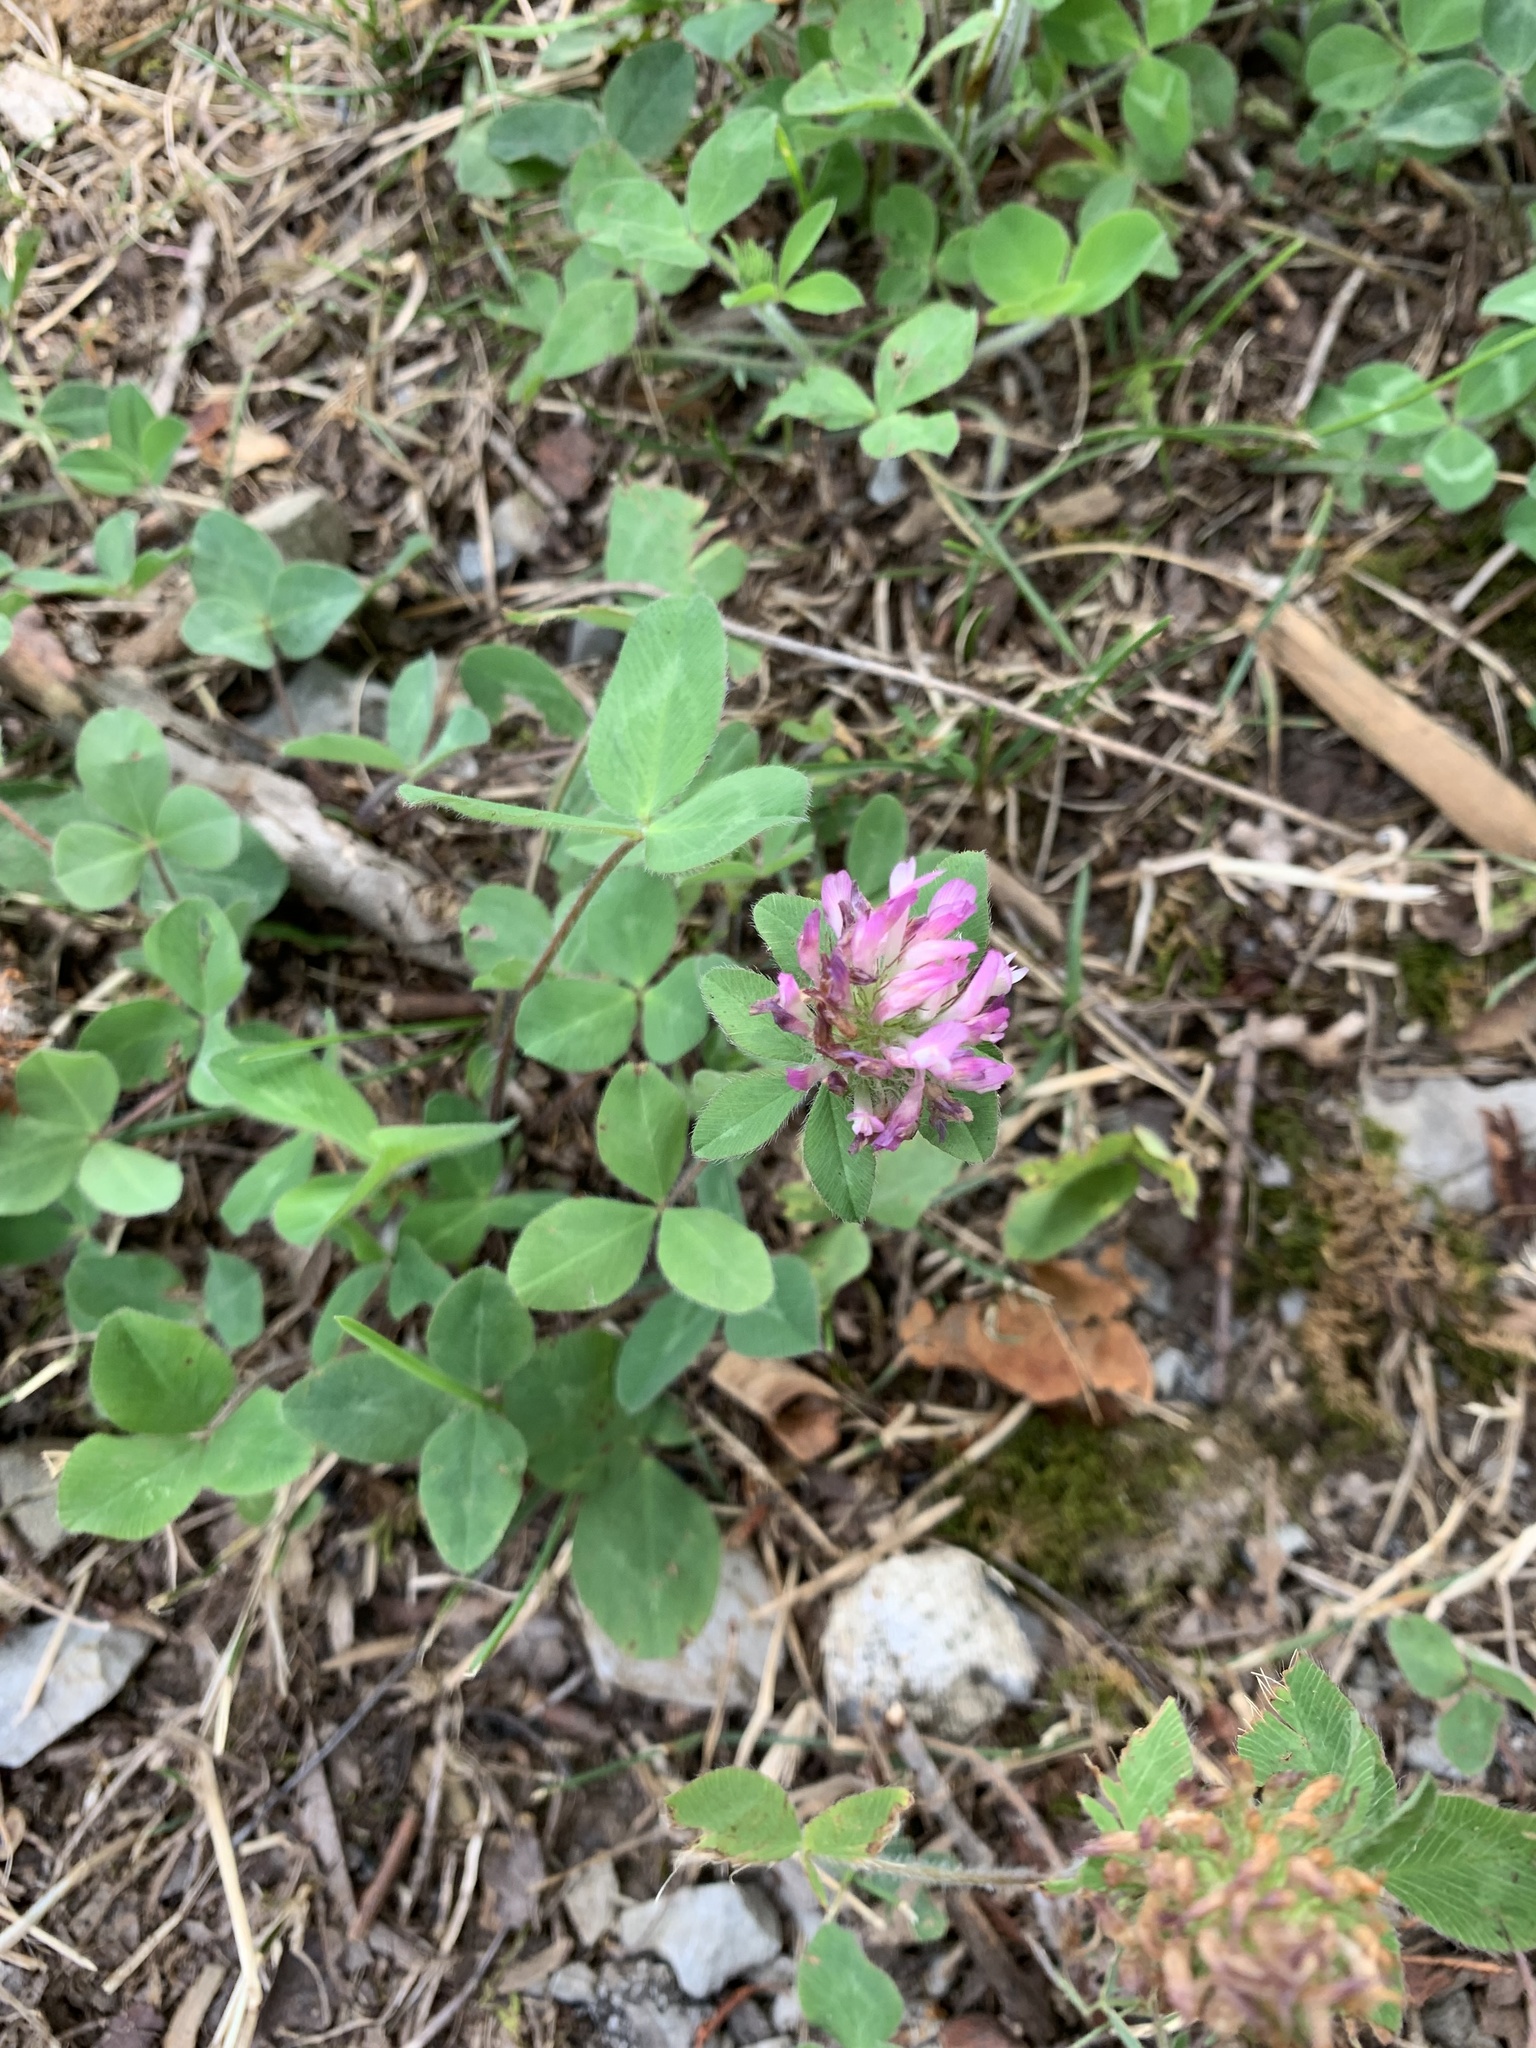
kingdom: Plantae
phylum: Tracheophyta
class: Magnoliopsida
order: Fabales
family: Fabaceae
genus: Trifolium
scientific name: Trifolium pratense
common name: Red clover
